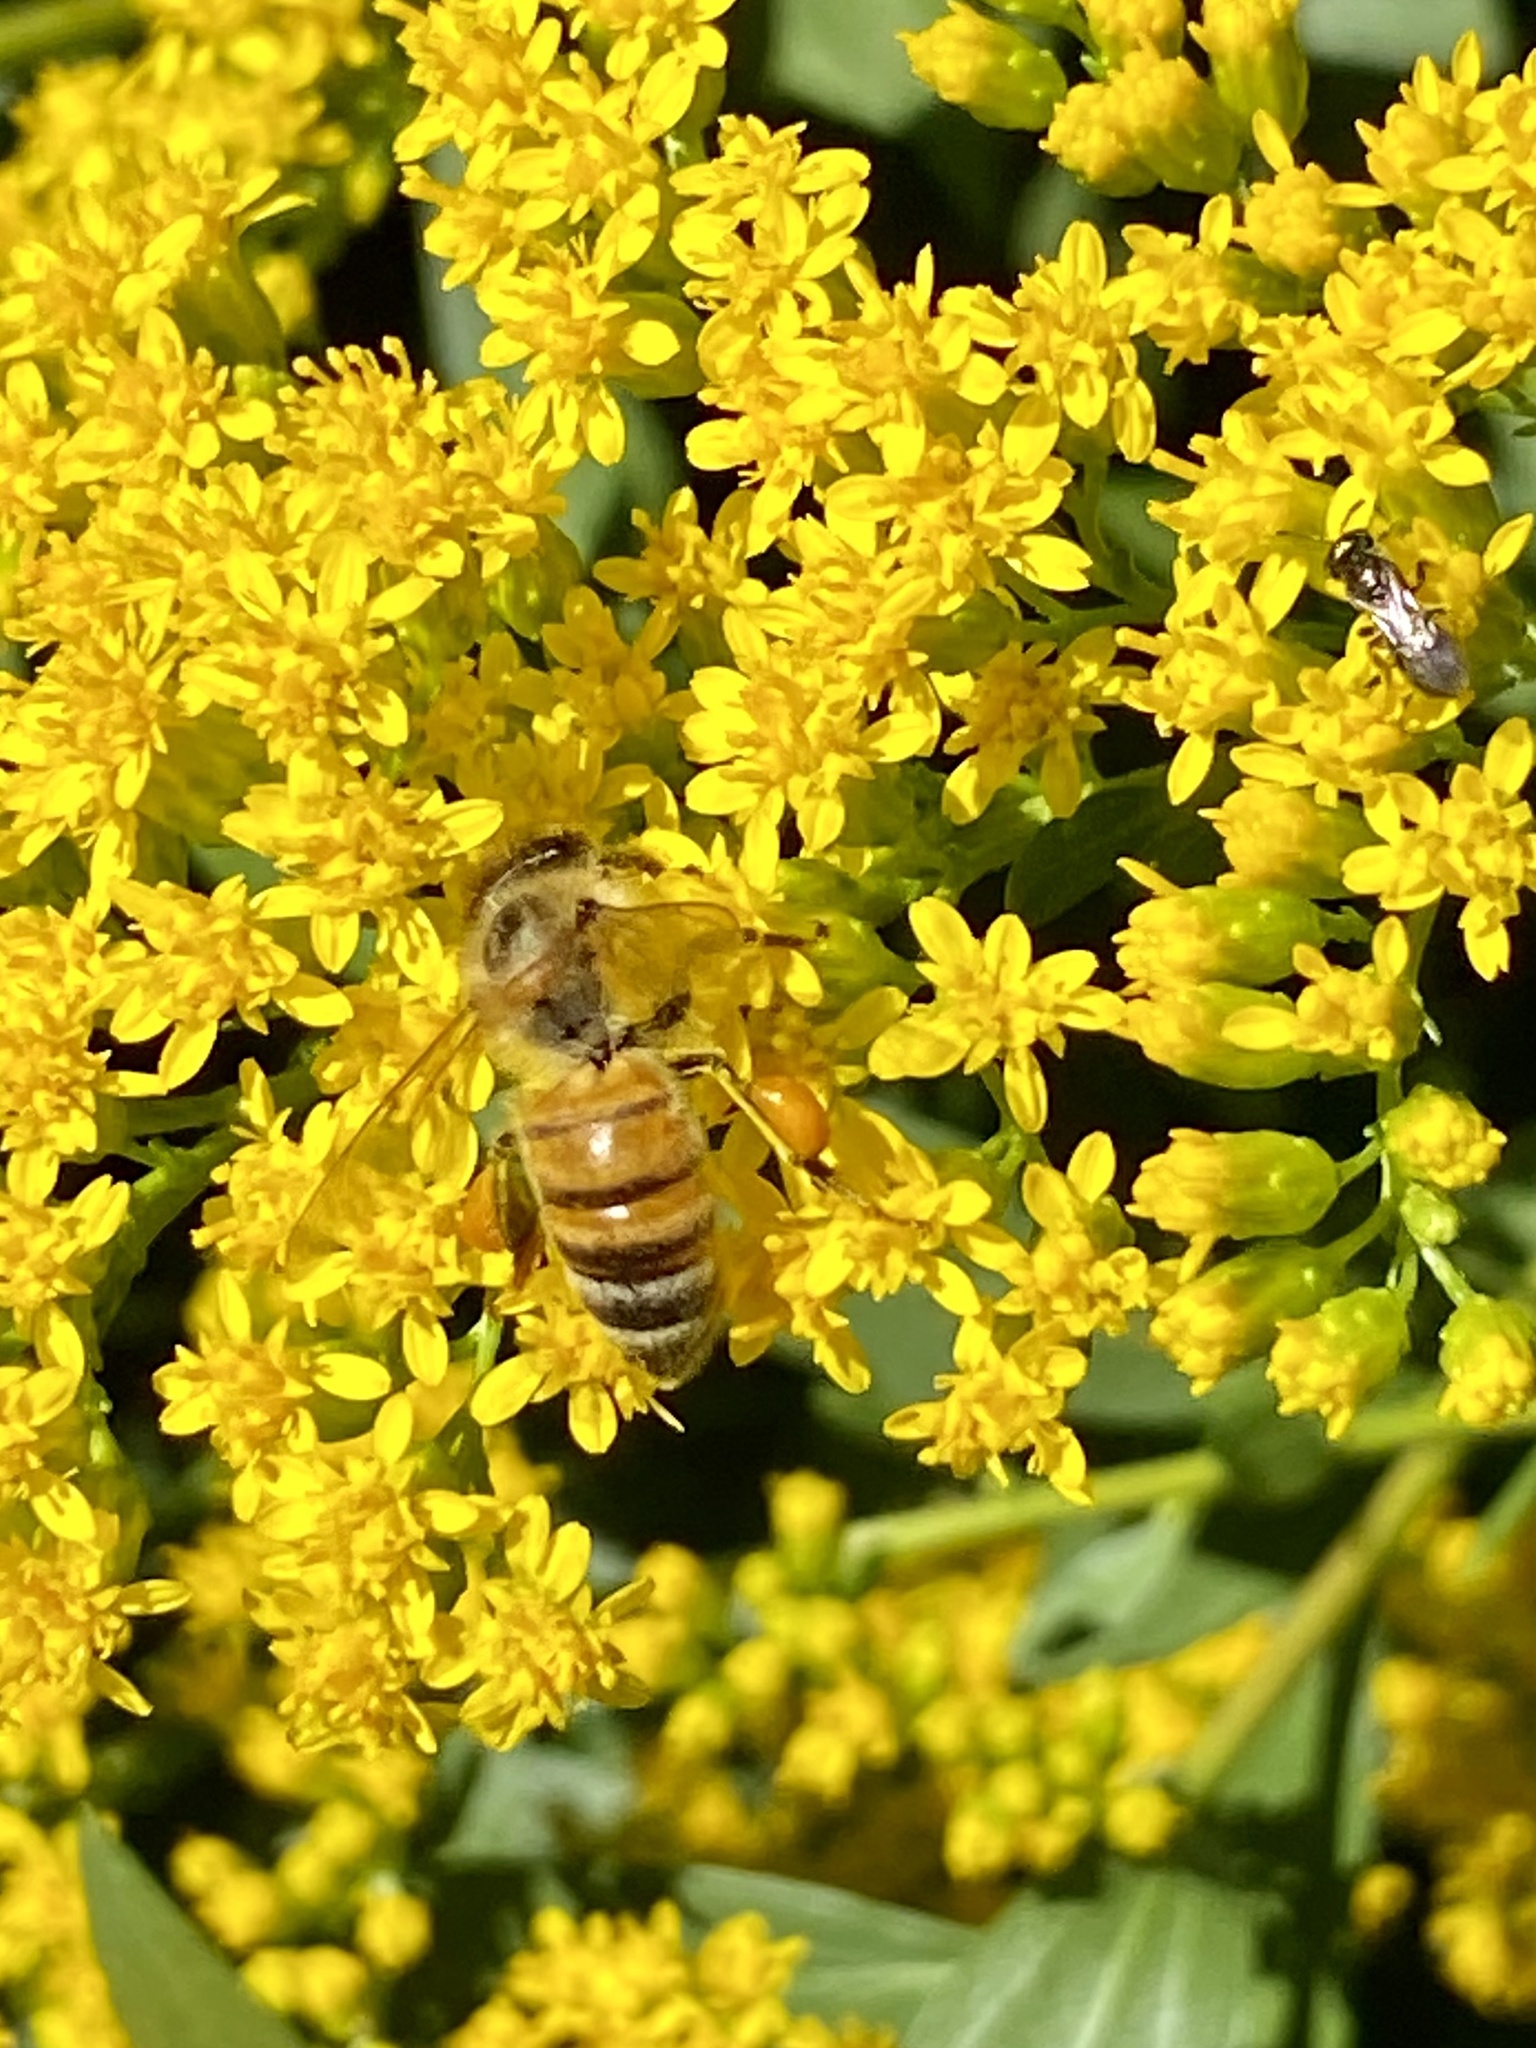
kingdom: Animalia
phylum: Arthropoda
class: Insecta
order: Hymenoptera
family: Apidae
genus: Apis
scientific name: Apis mellifera
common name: Honey bee
